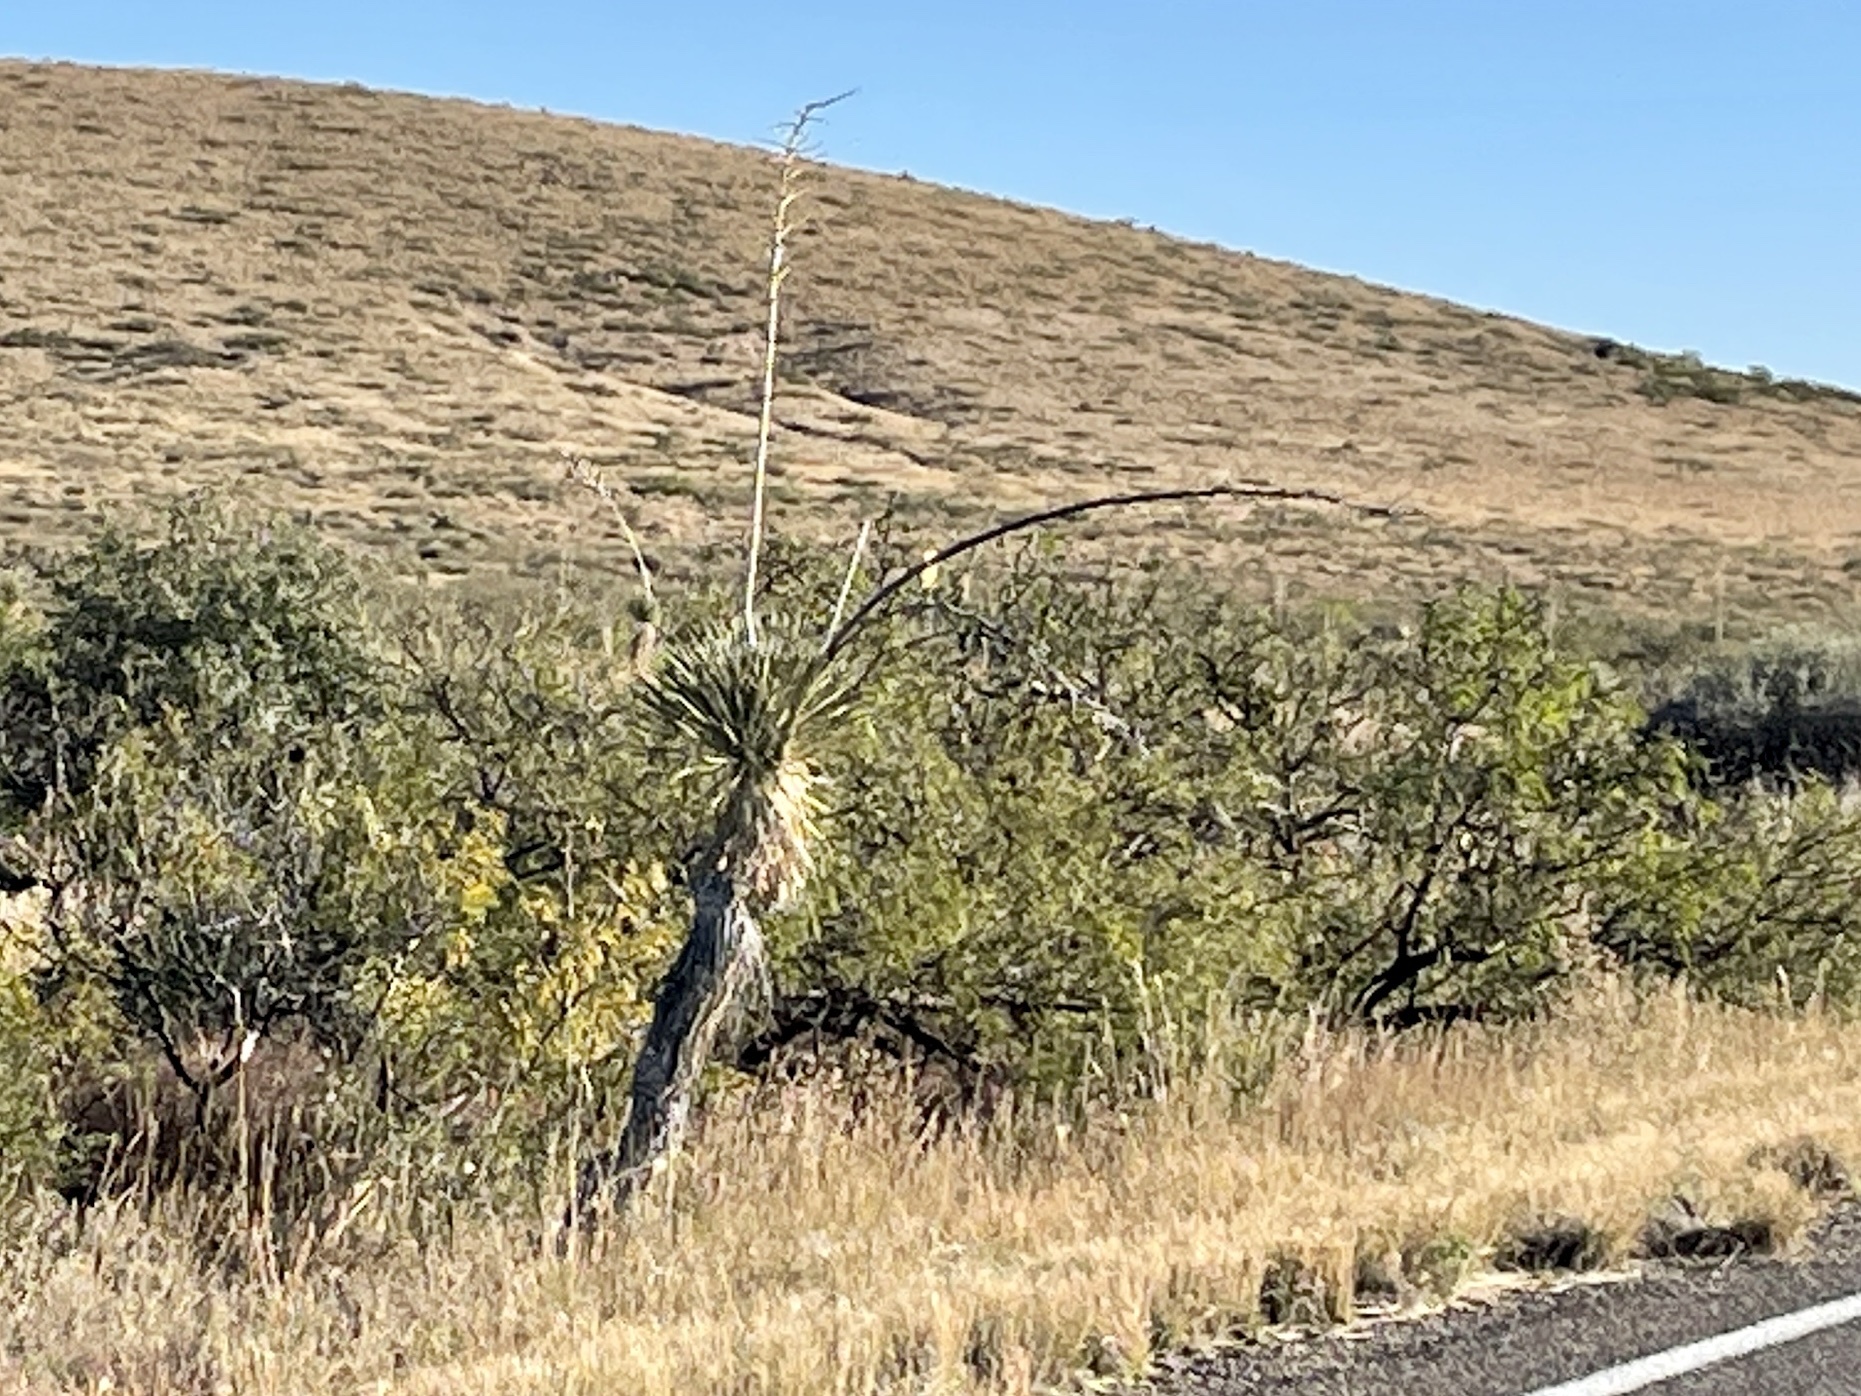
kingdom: Plantae
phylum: Tracheophyta
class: Liliopsida
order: Asparagales
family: Asparagaceae
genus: Yucca
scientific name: Yucca elata
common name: Palmella
